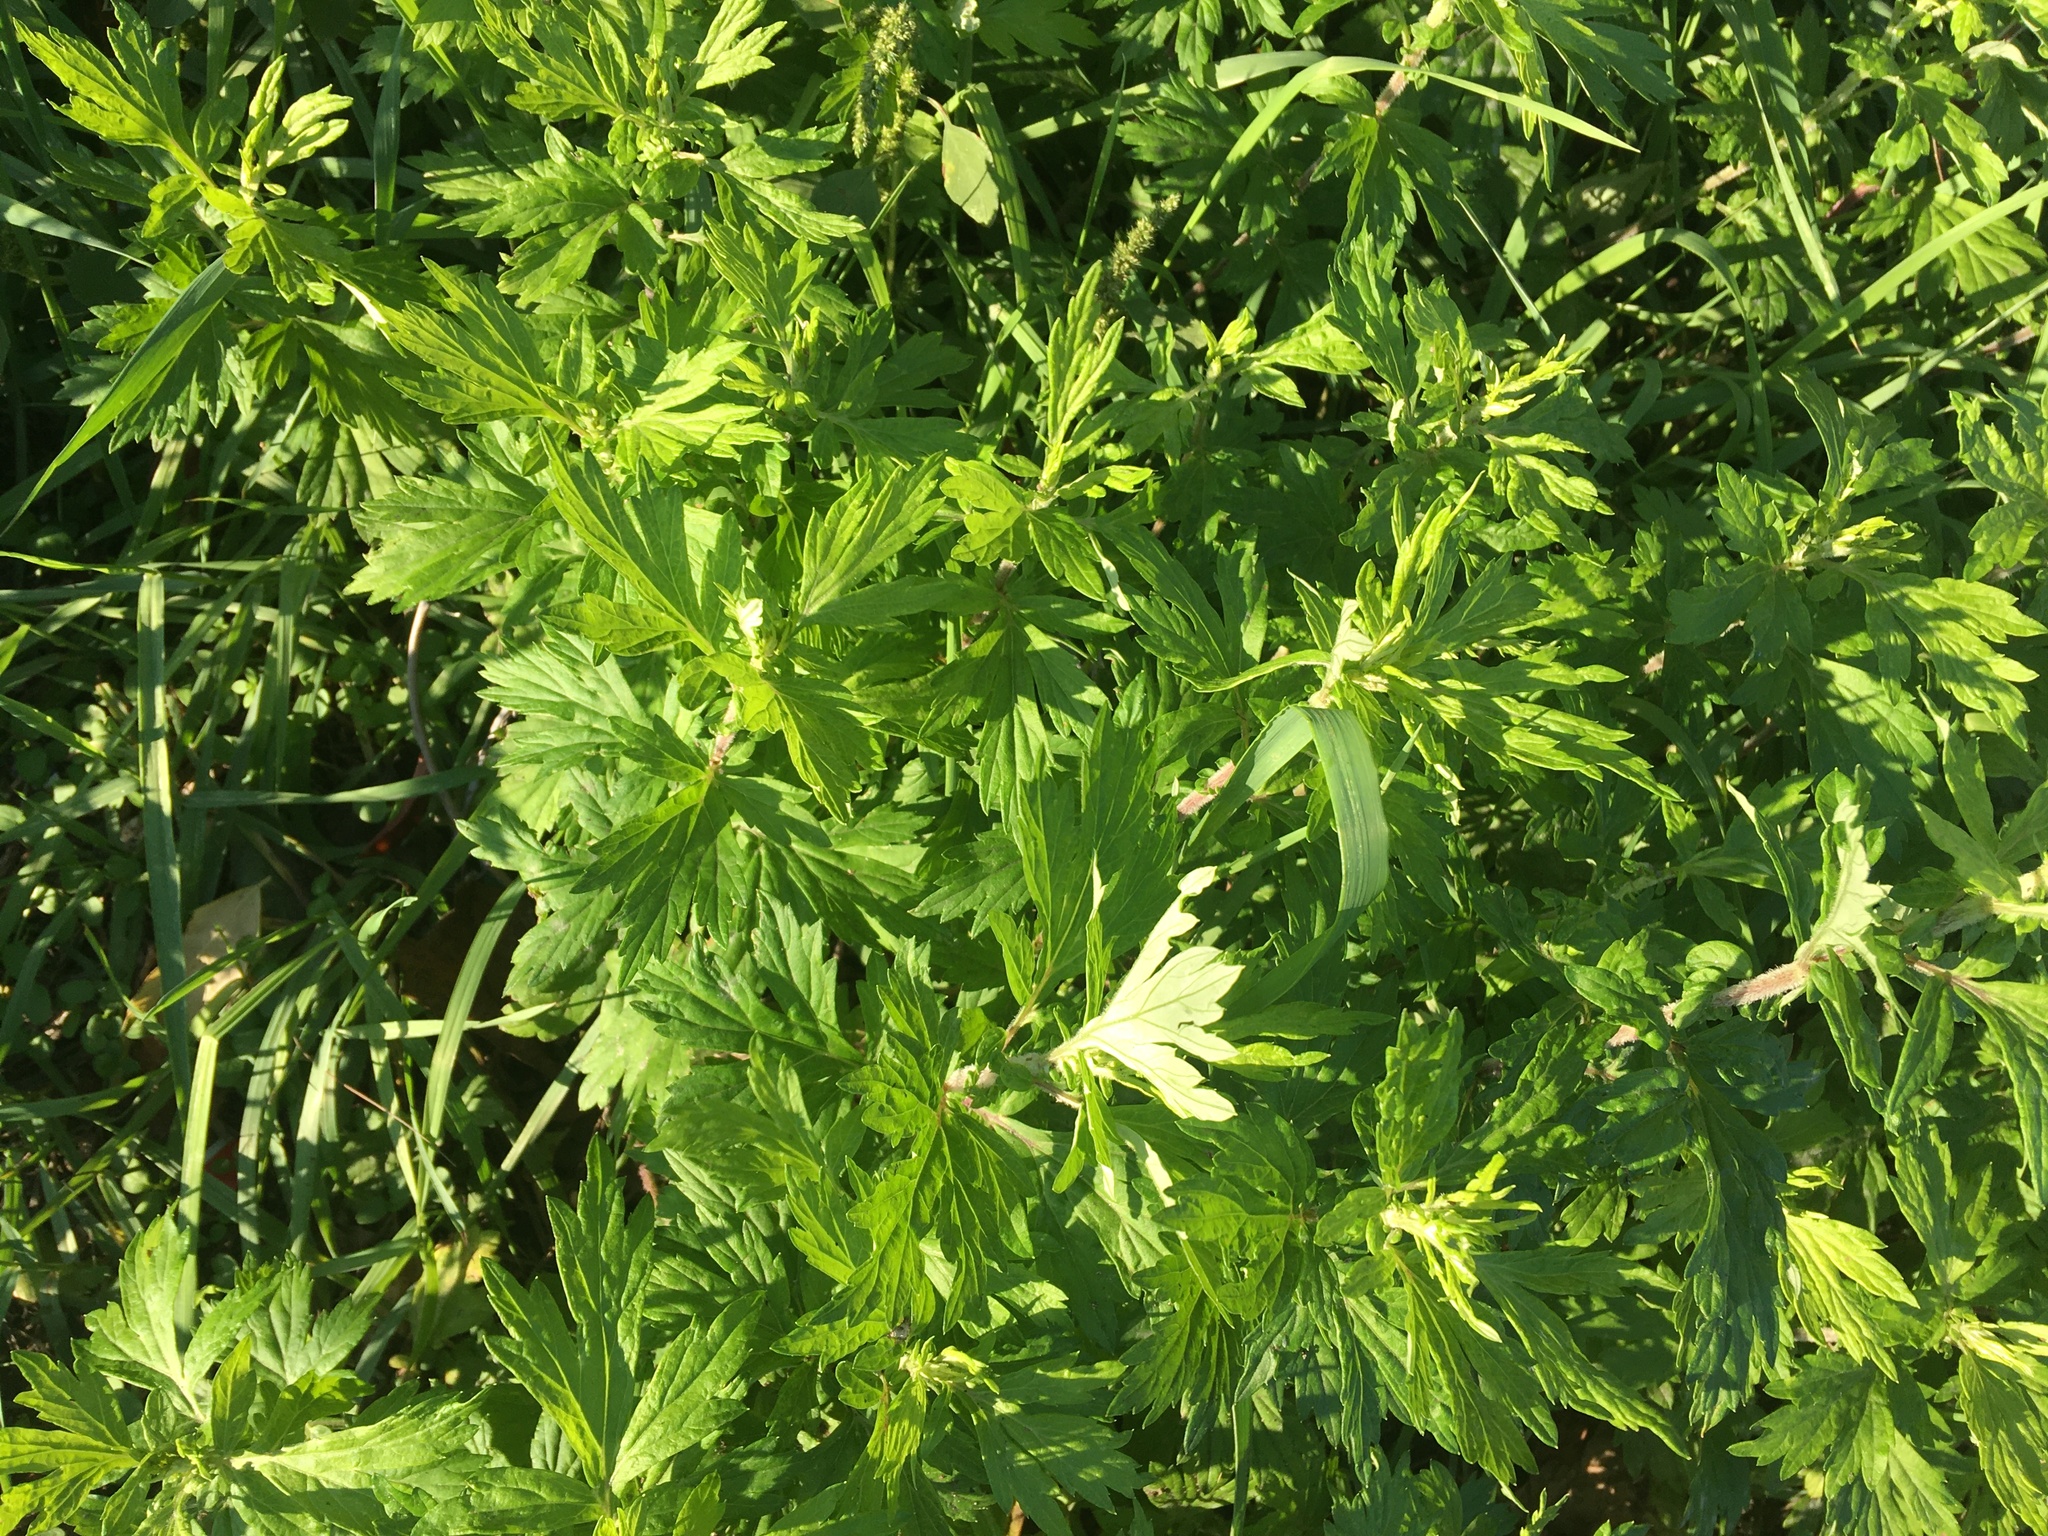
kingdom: Plantae
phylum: Tracheophyta
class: Magnoliopsida
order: Asterales
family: Asteraceae
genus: Artemisia
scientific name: Artemisia vulgaris
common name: Mugwort
